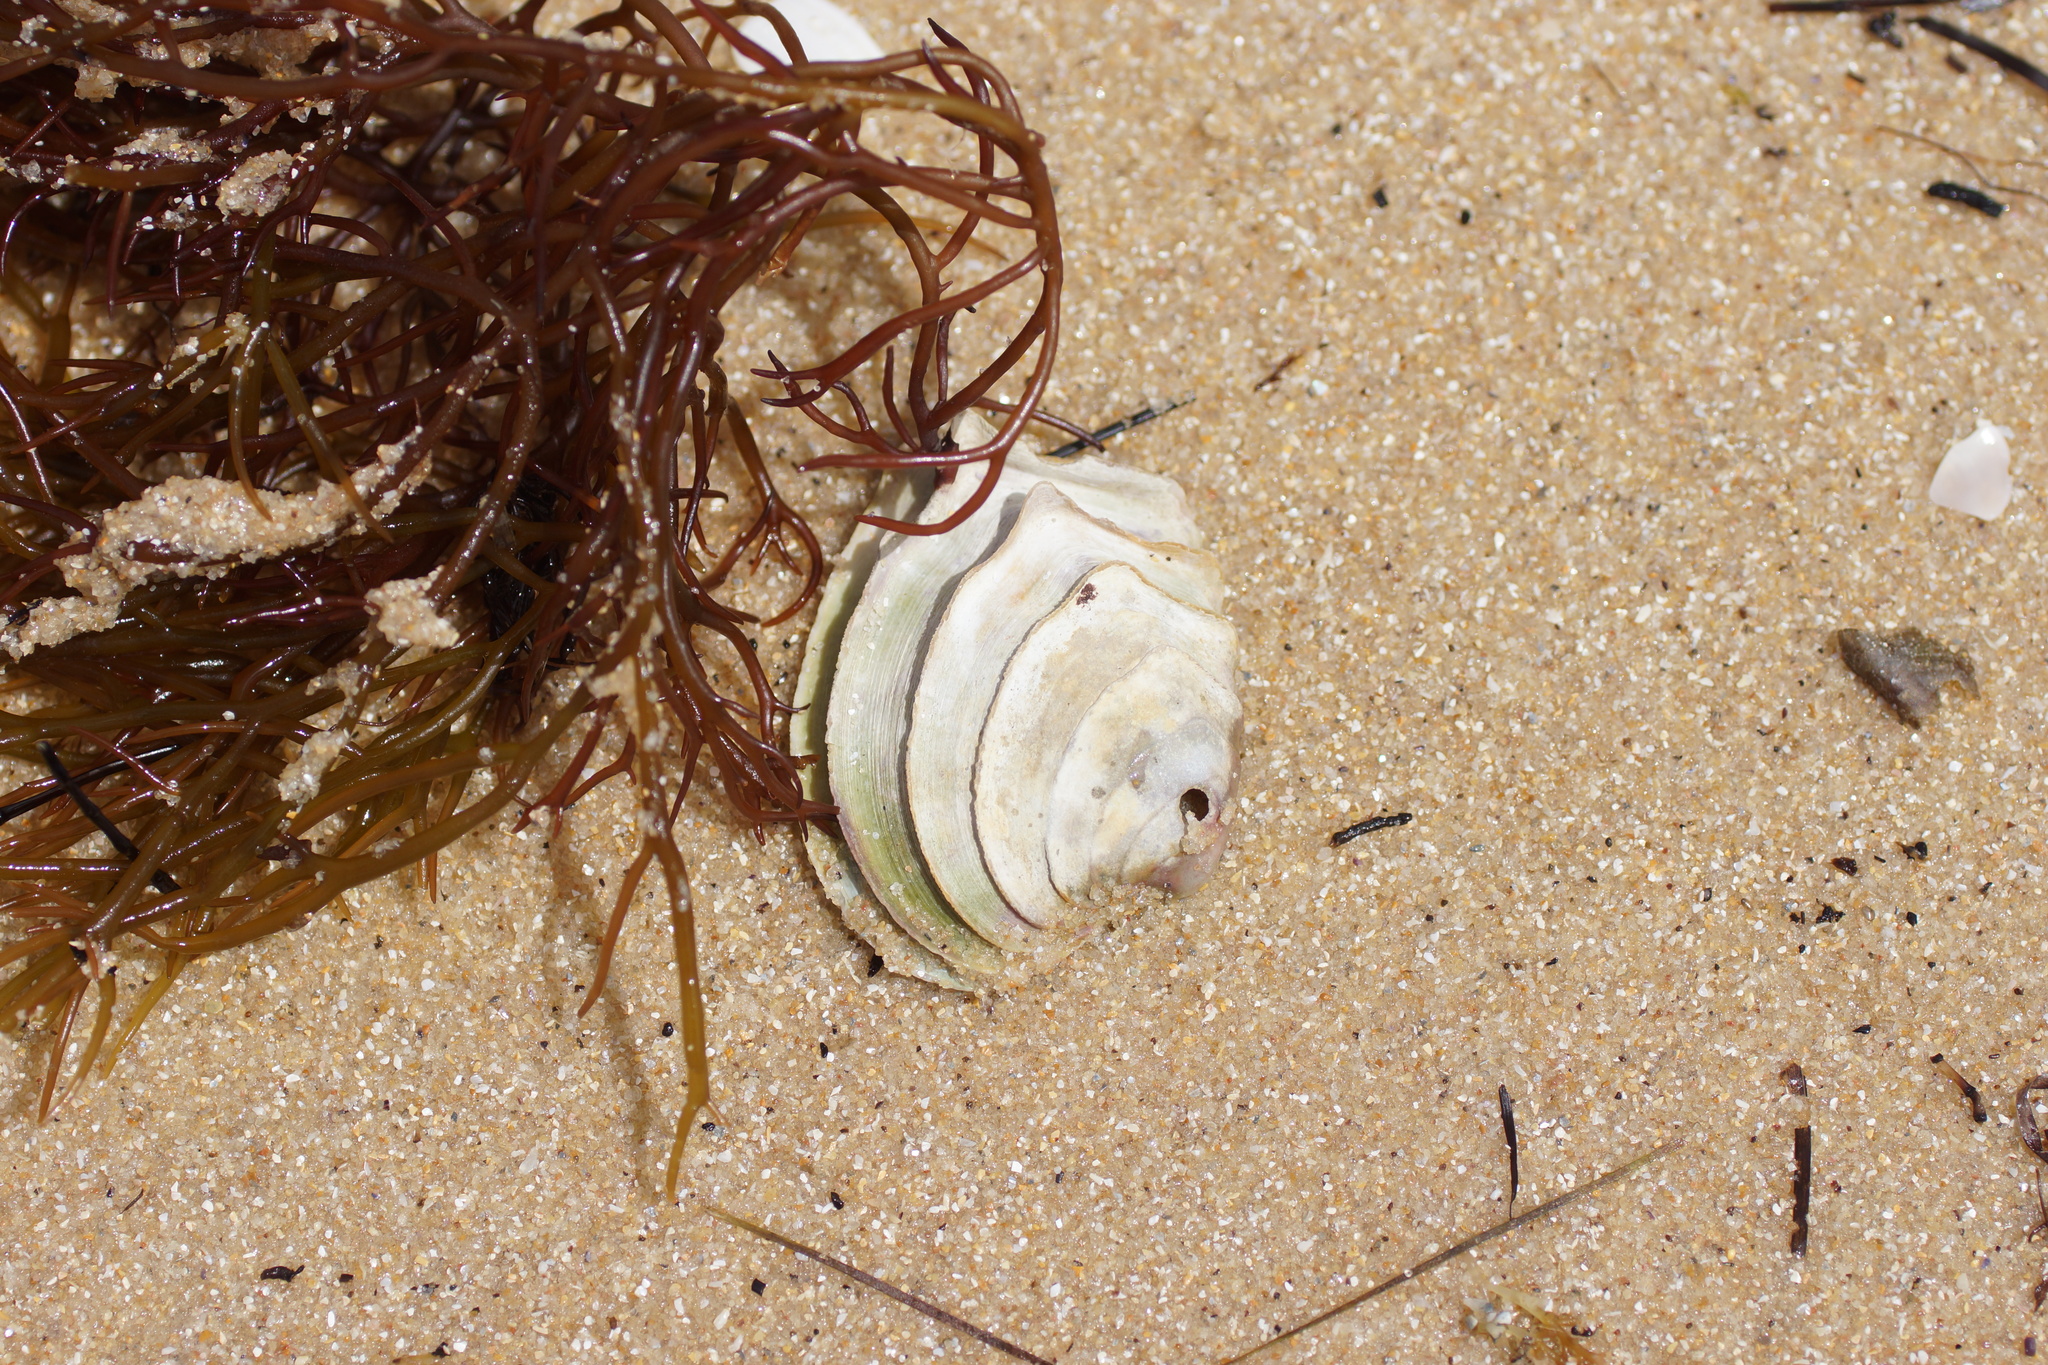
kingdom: Animalia
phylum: Mollusca
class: Bivalvia
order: Venerida
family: Veneridae
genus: Bassina
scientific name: Bassina disjecta
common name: Wedding-cake venus
